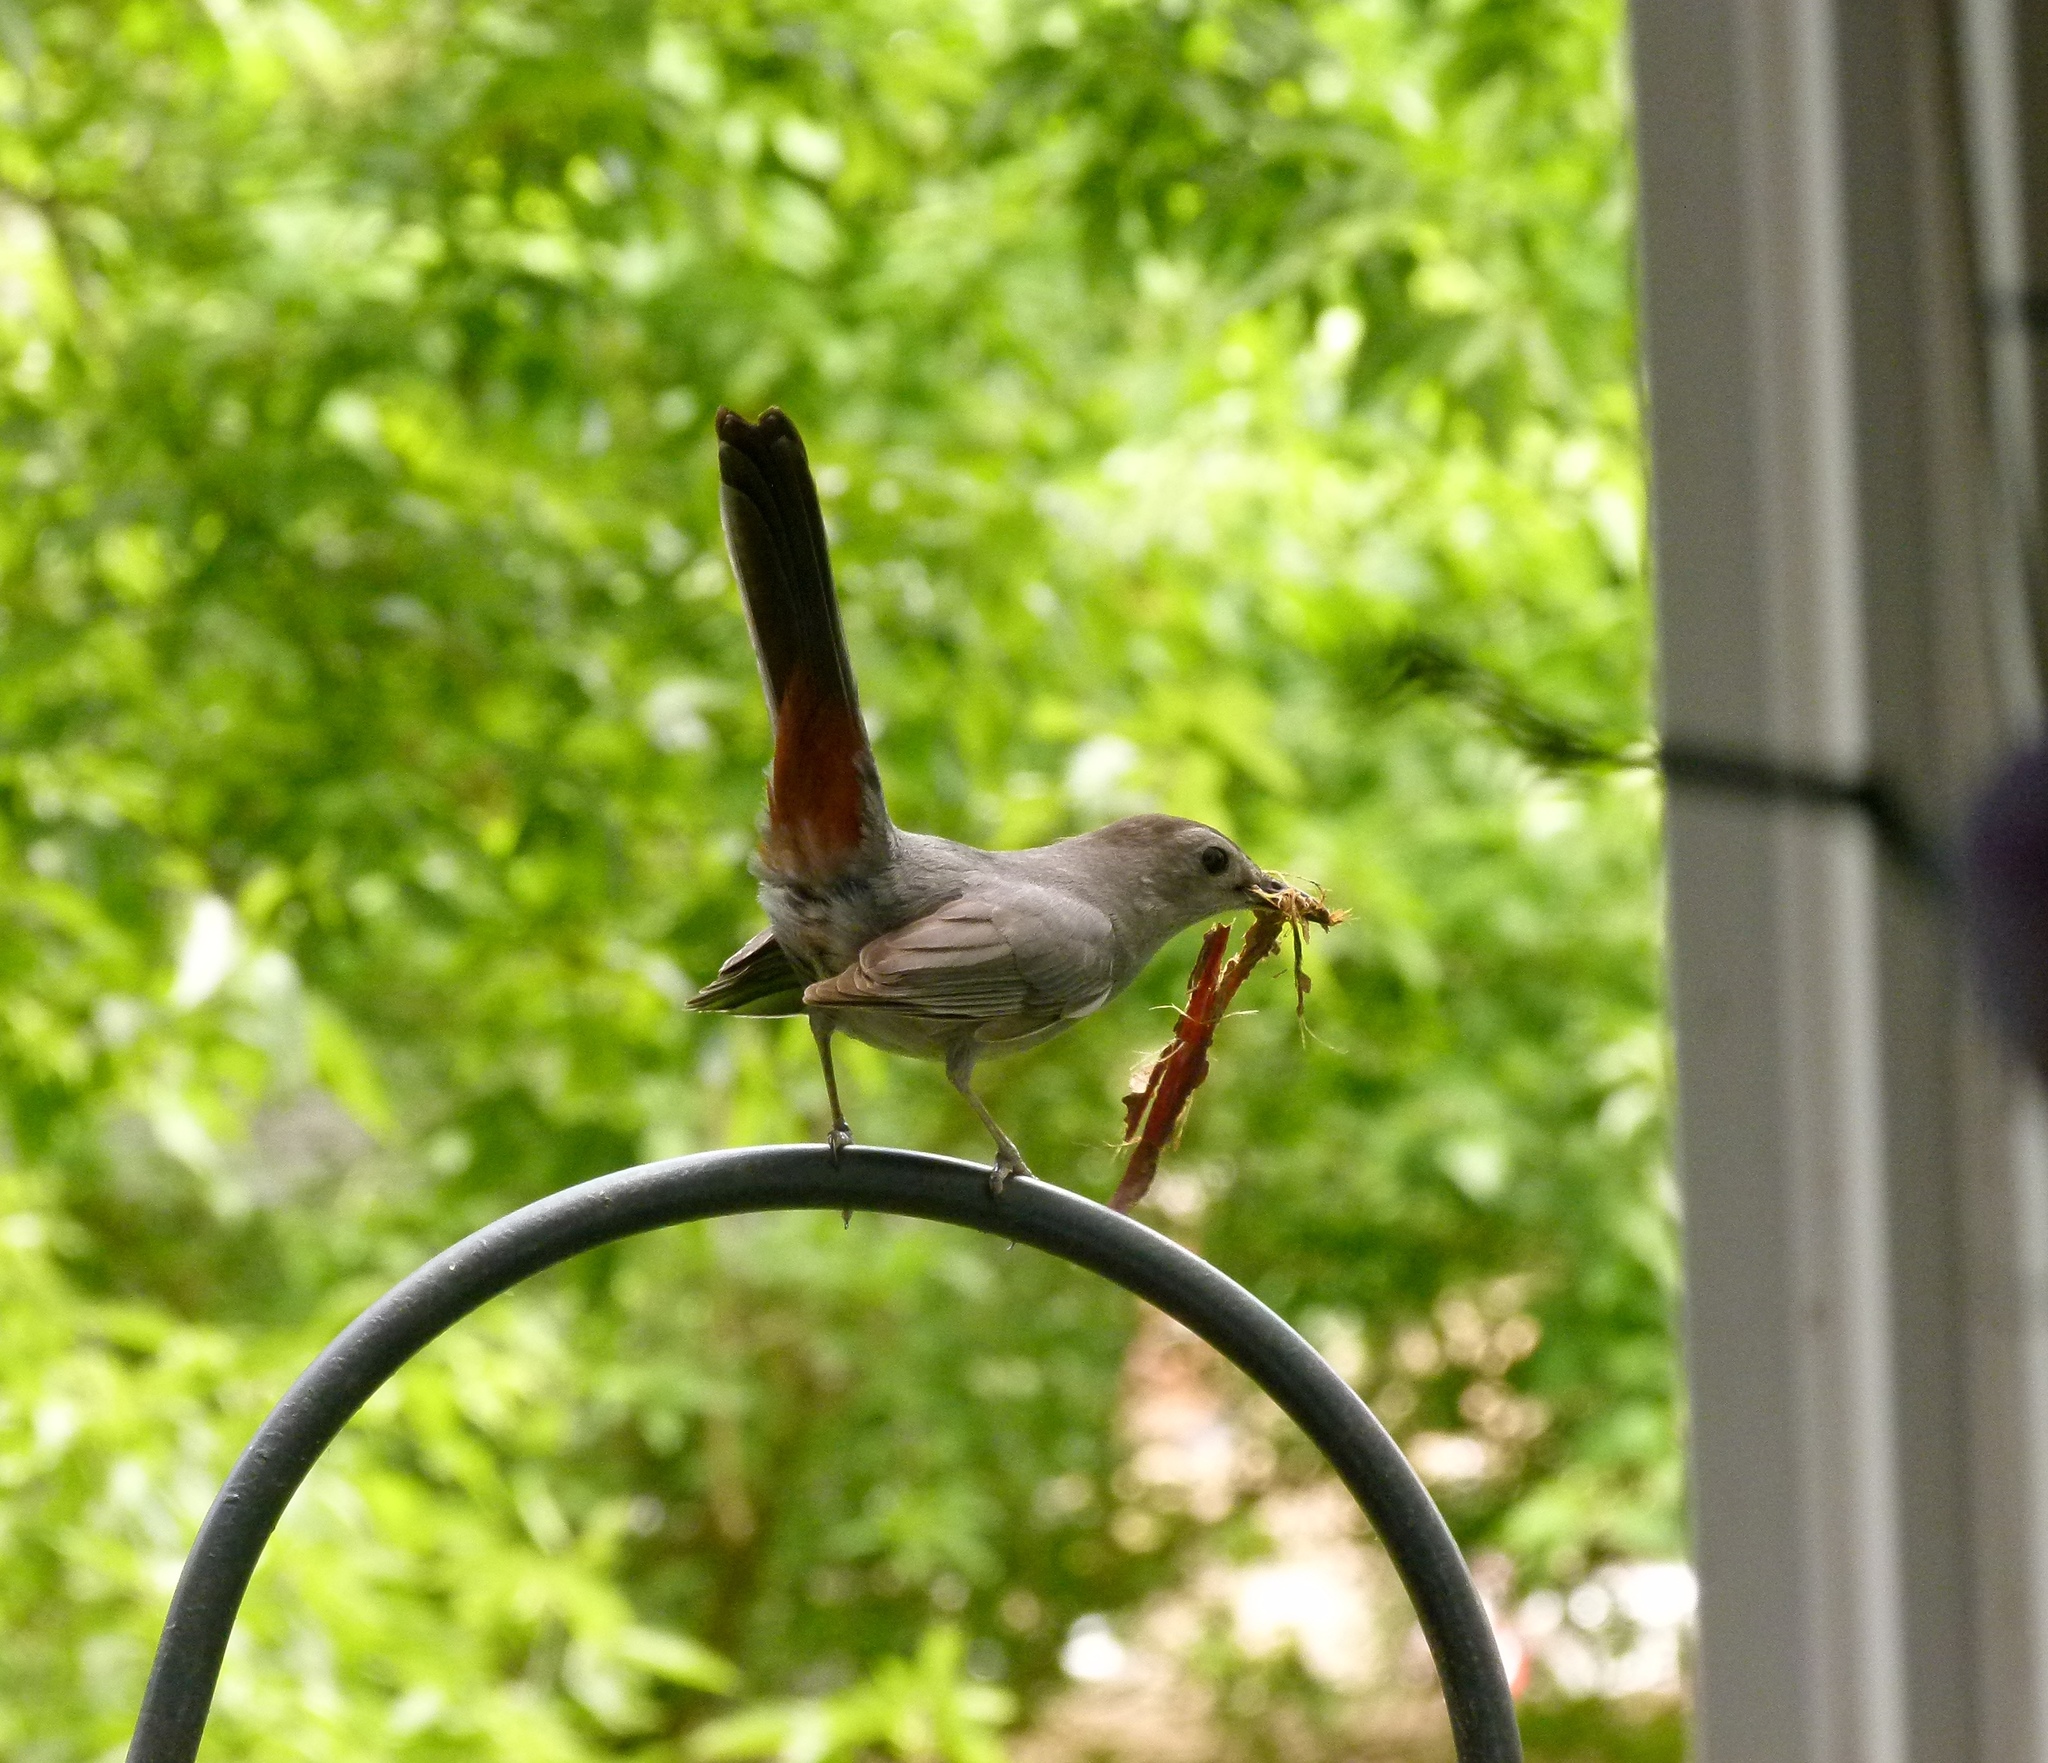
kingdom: Animalia
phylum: Chordata
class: Aves
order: Passeriformes
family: Mimidae
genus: Dumetella
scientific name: Dumetella carolinensis
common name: Gray catbird
